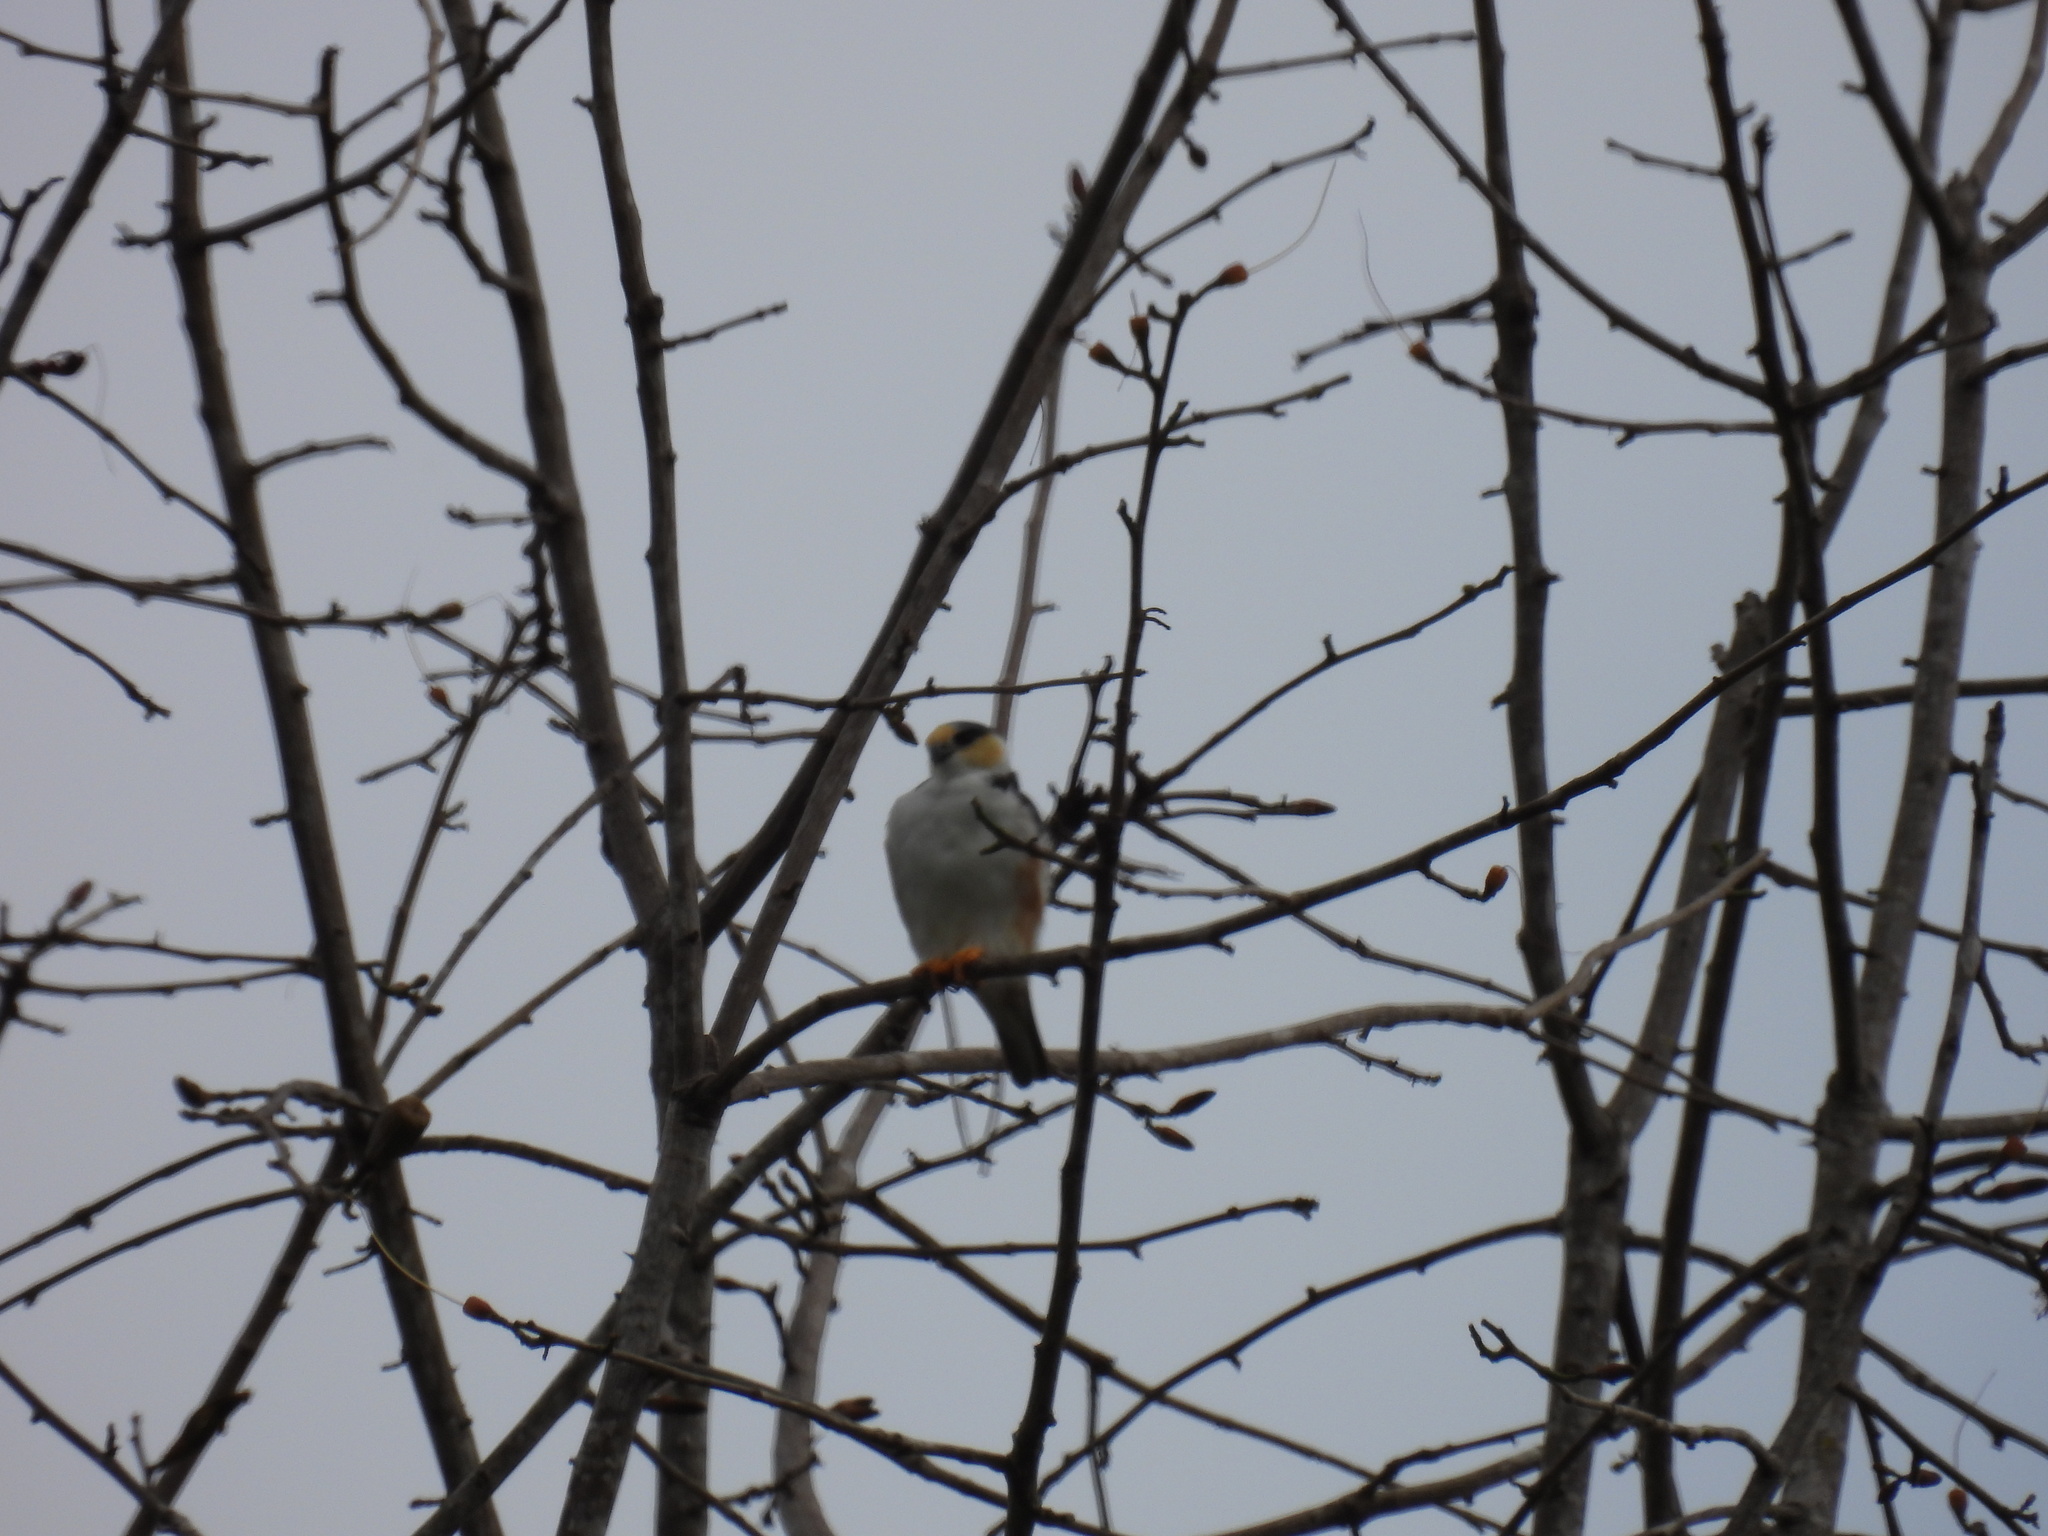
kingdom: Animalia
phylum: Chordata
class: Aves
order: Accipitriformes
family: Accipitridae
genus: Gampsonyx
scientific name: Gampsonyx swainsonii
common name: Pearl kite
